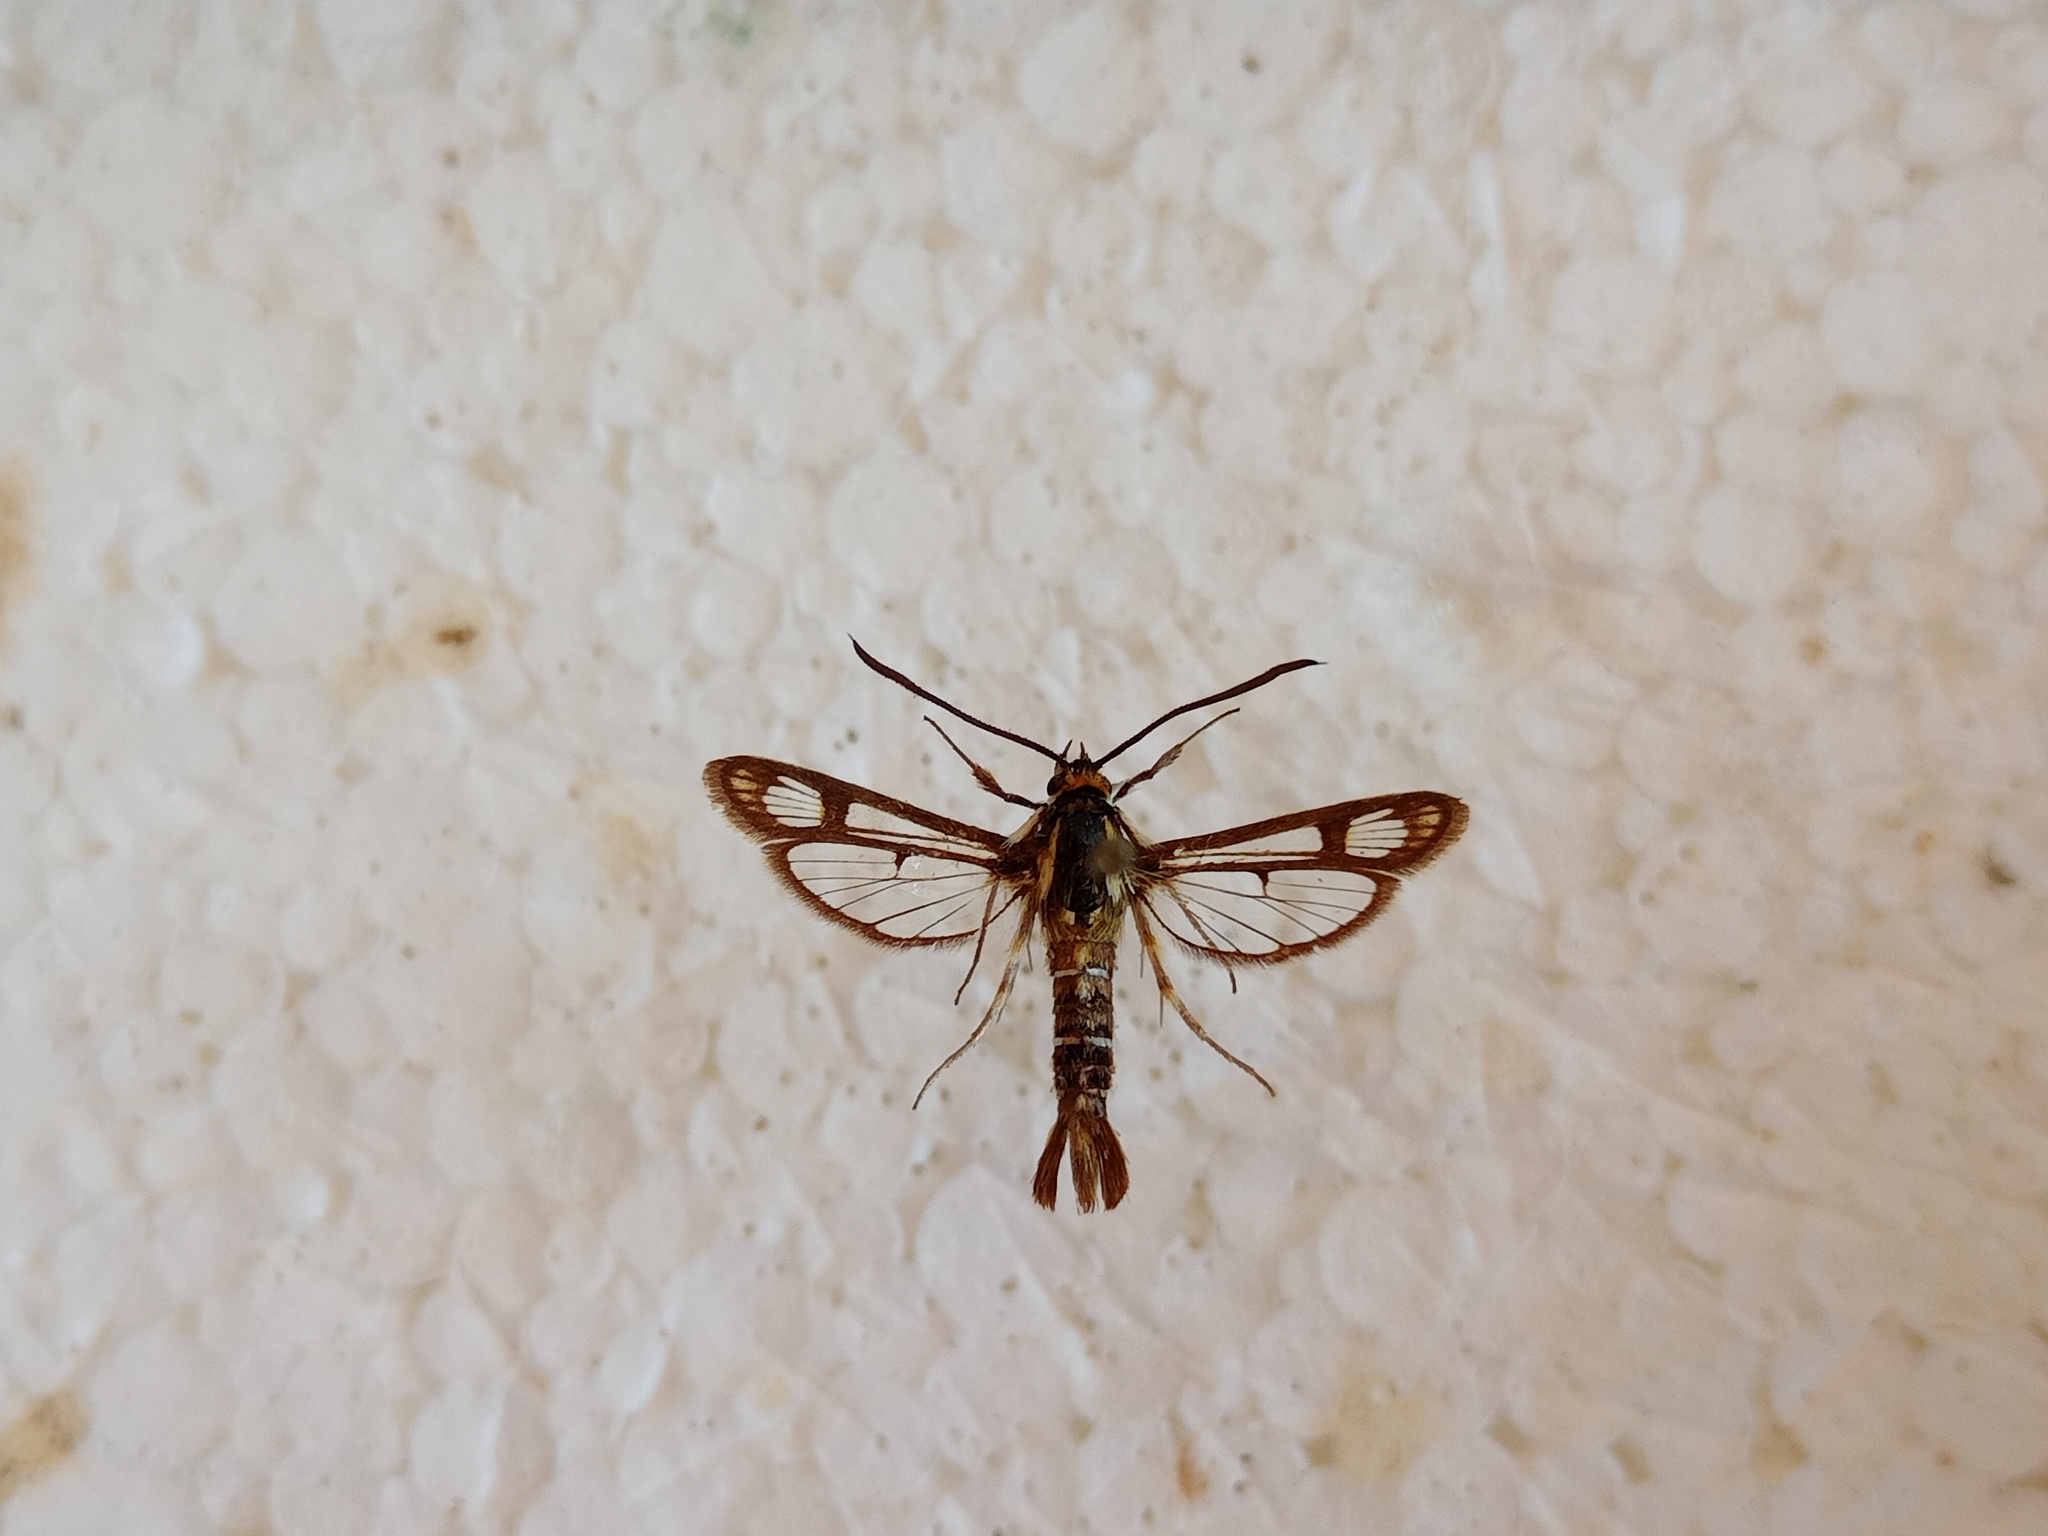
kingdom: Animalia
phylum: Arthropoda
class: Insecta
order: Lepidoptera
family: Sesiidae
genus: Pyropteron
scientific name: Pyropteron triannuliformis
